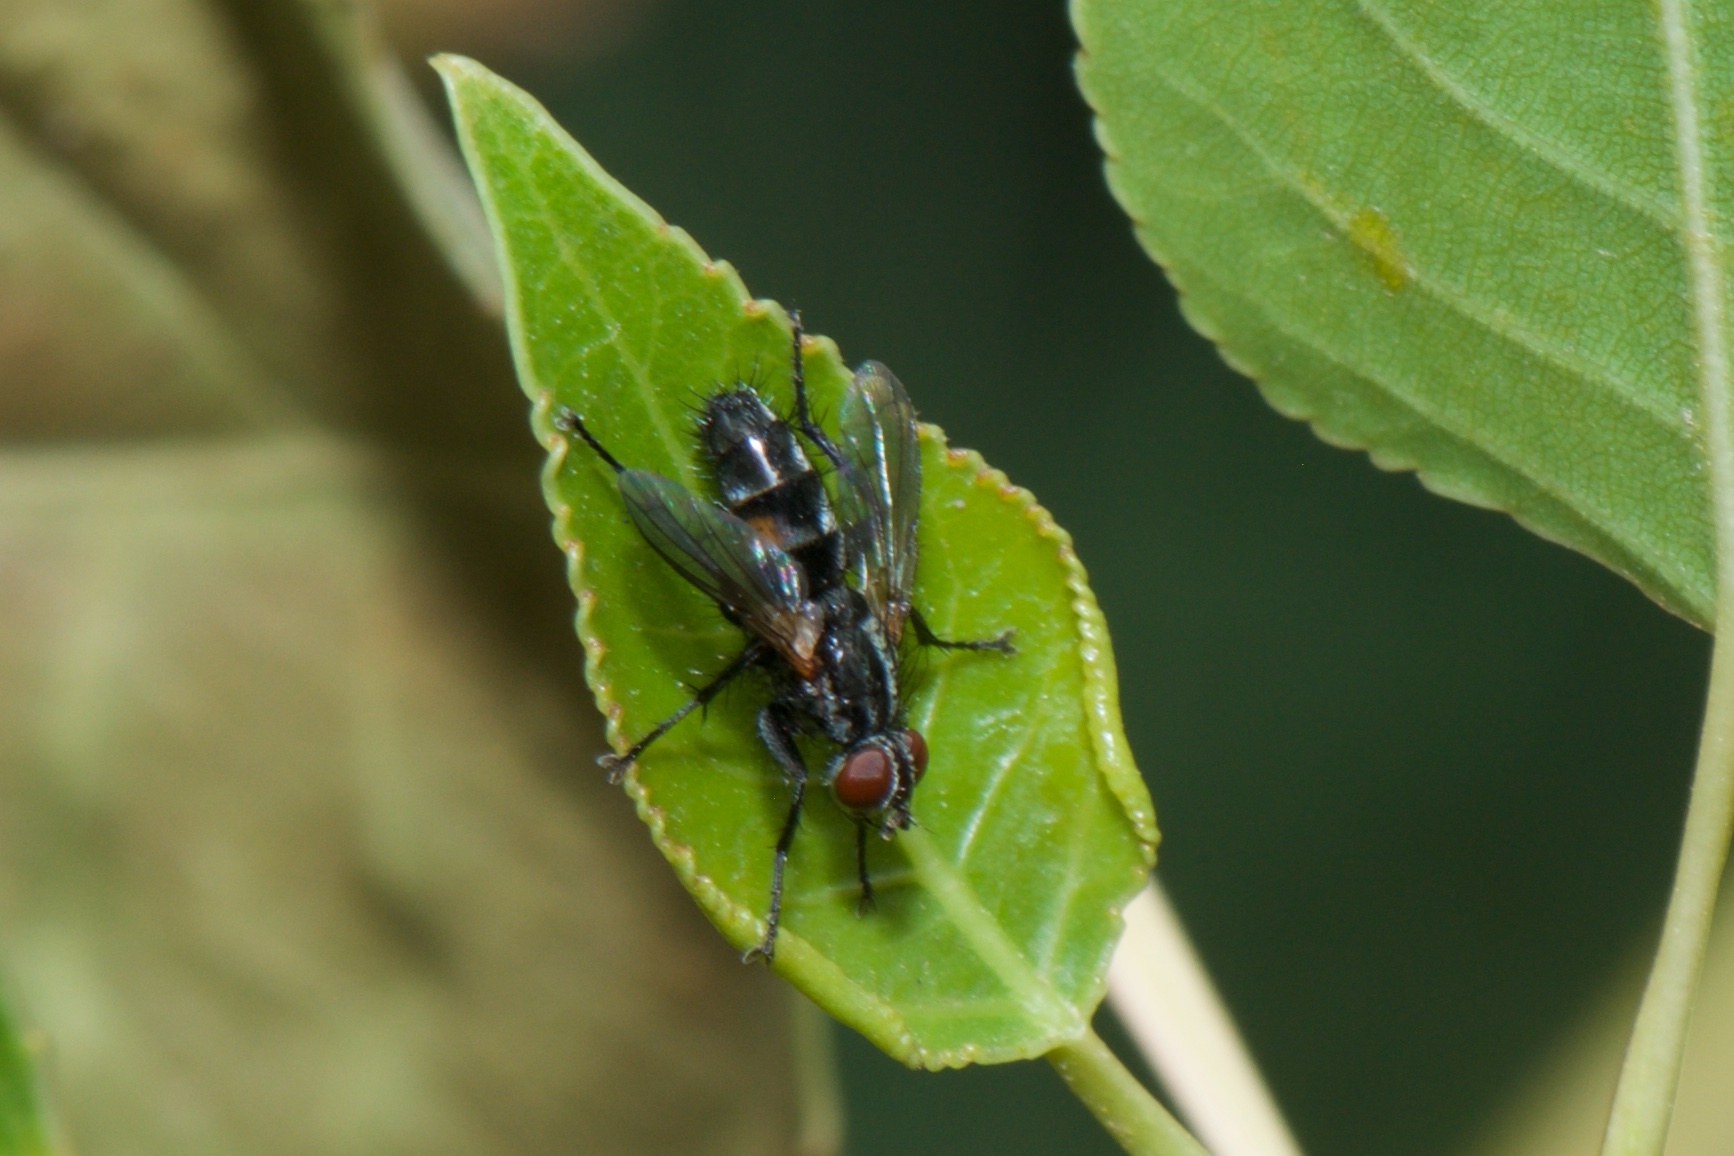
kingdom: Animalia
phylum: Arthropoda
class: Insecta
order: Diptera
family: Calliphoridae
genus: Stevenia
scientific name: Stevenia deceptoria
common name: Grizzled woodlouse-fly
